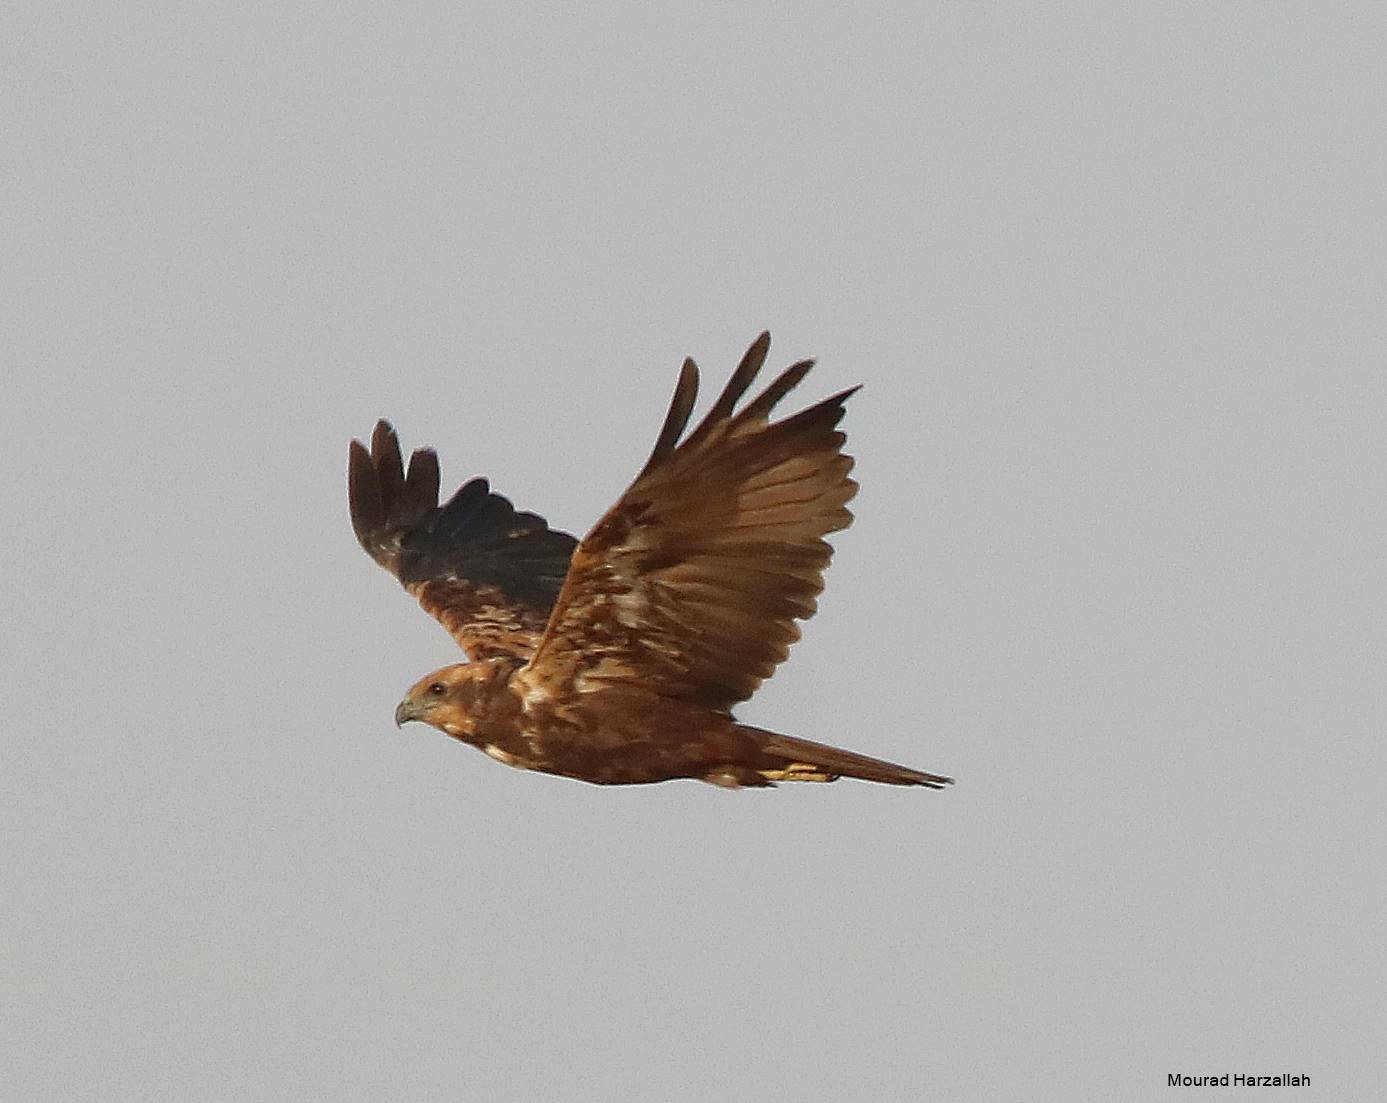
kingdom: Animalia
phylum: Chordata
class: Aves
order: Accipitriformes
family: Accipitridae
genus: Circus
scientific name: Circus aeruginosus
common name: Western marsh harrier
